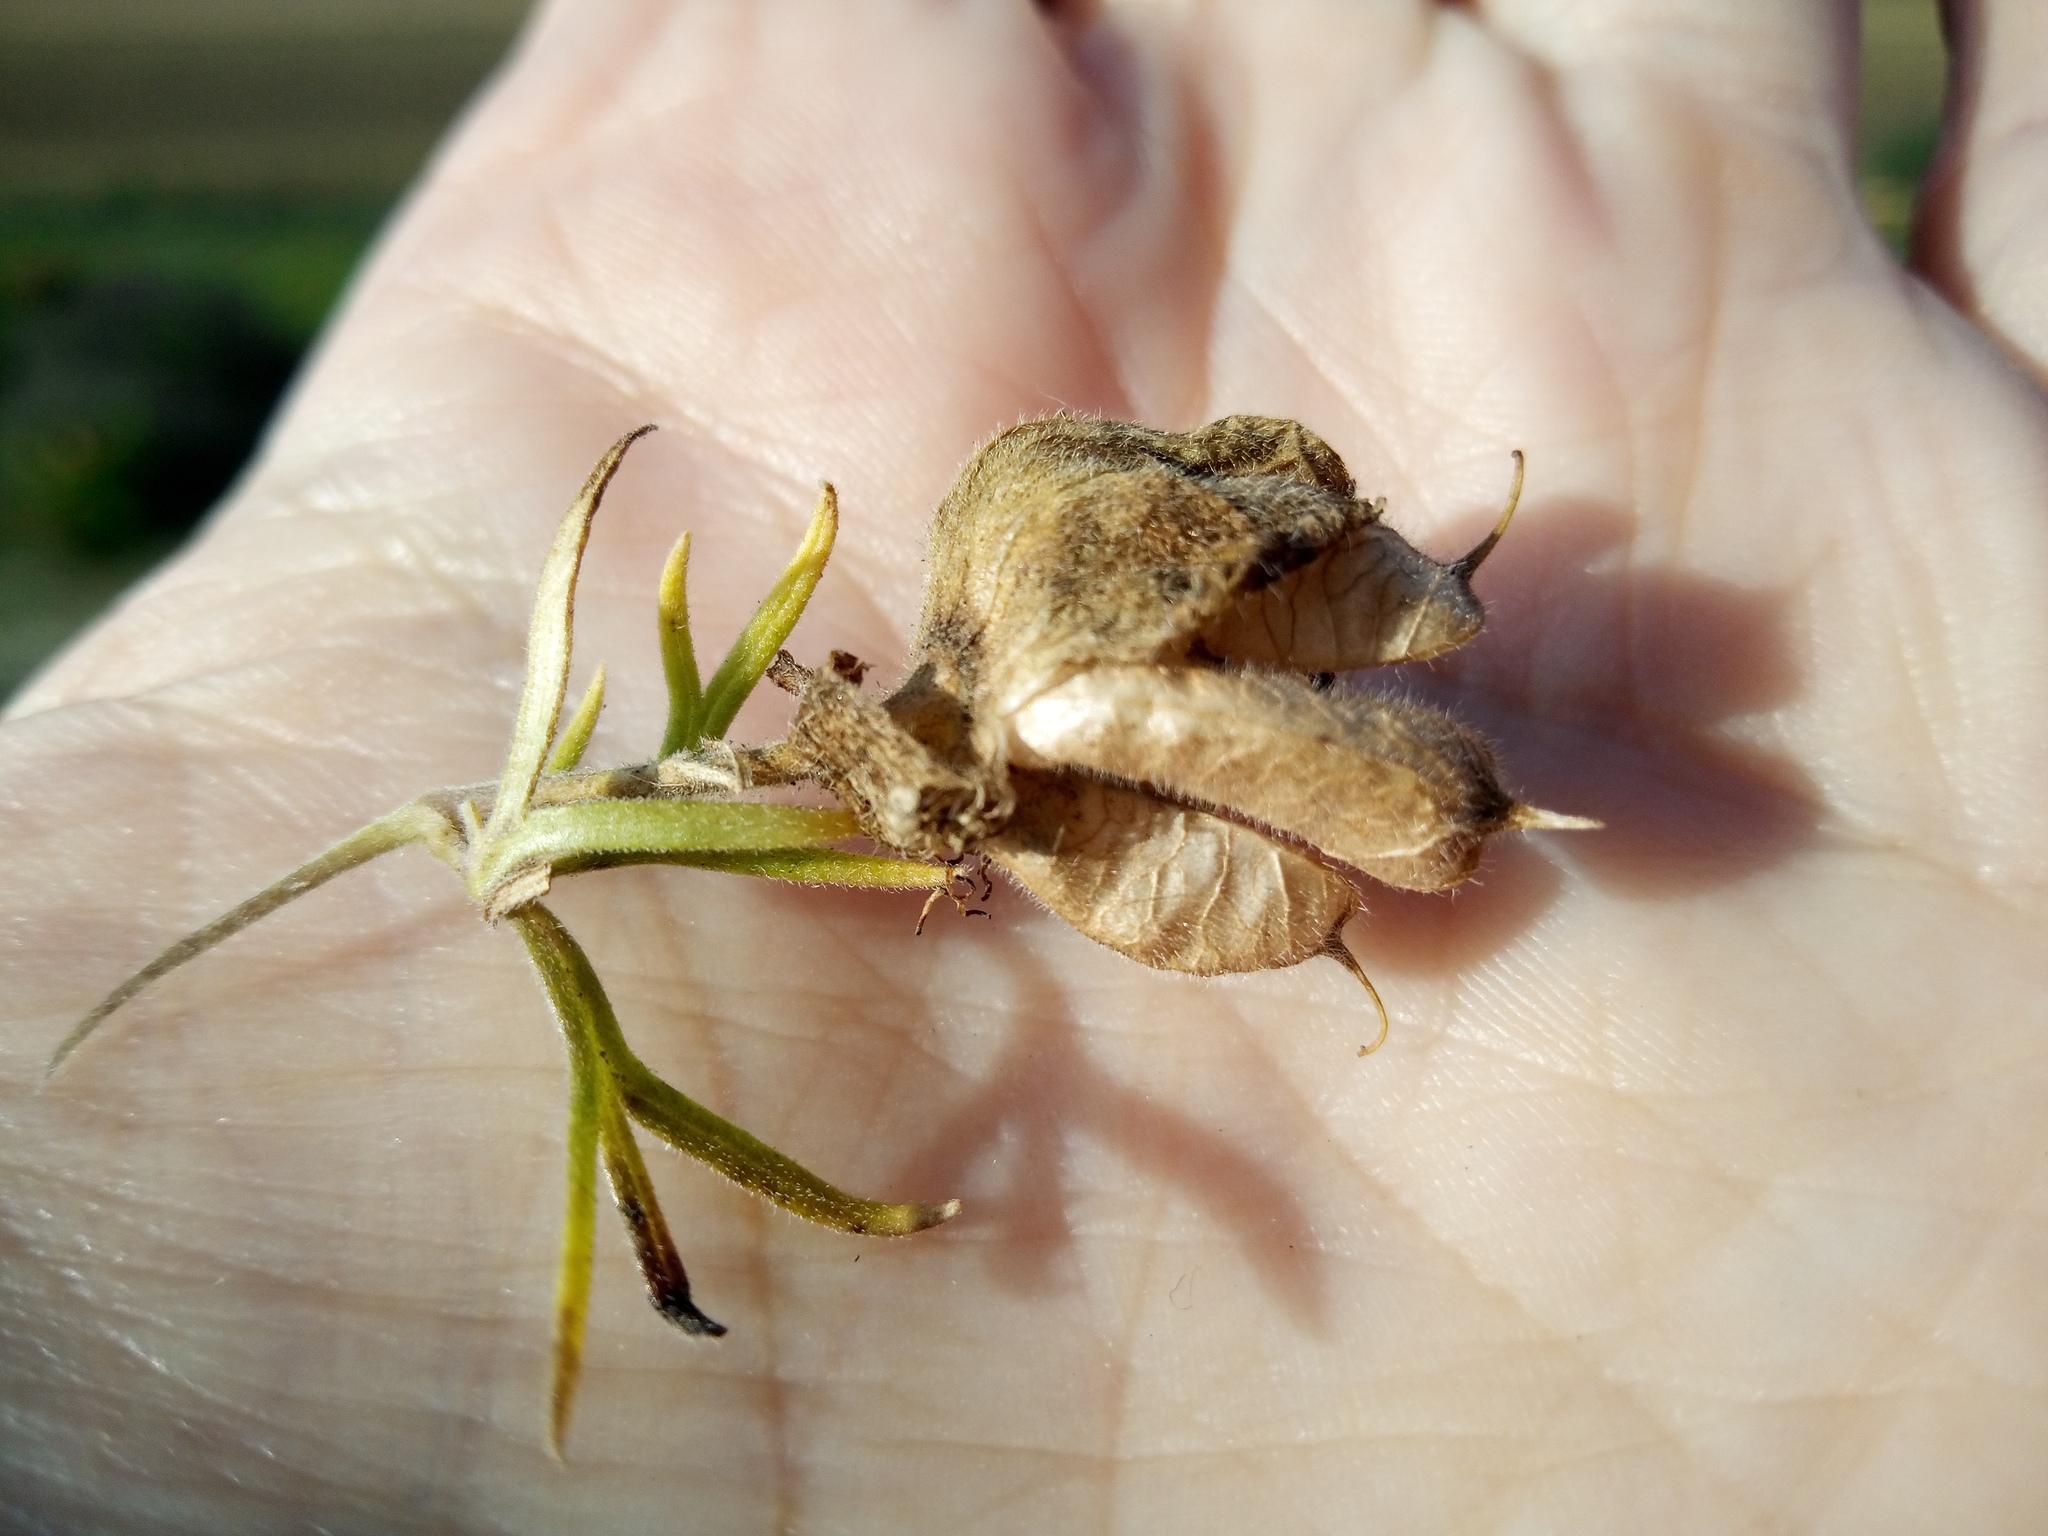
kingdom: Plantae
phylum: Tracheophyta
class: Magnoliopsida
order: Ranunculales
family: Ranunculaceae
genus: Aconitum
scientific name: Aconitum anthora
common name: Yellow monkshood
